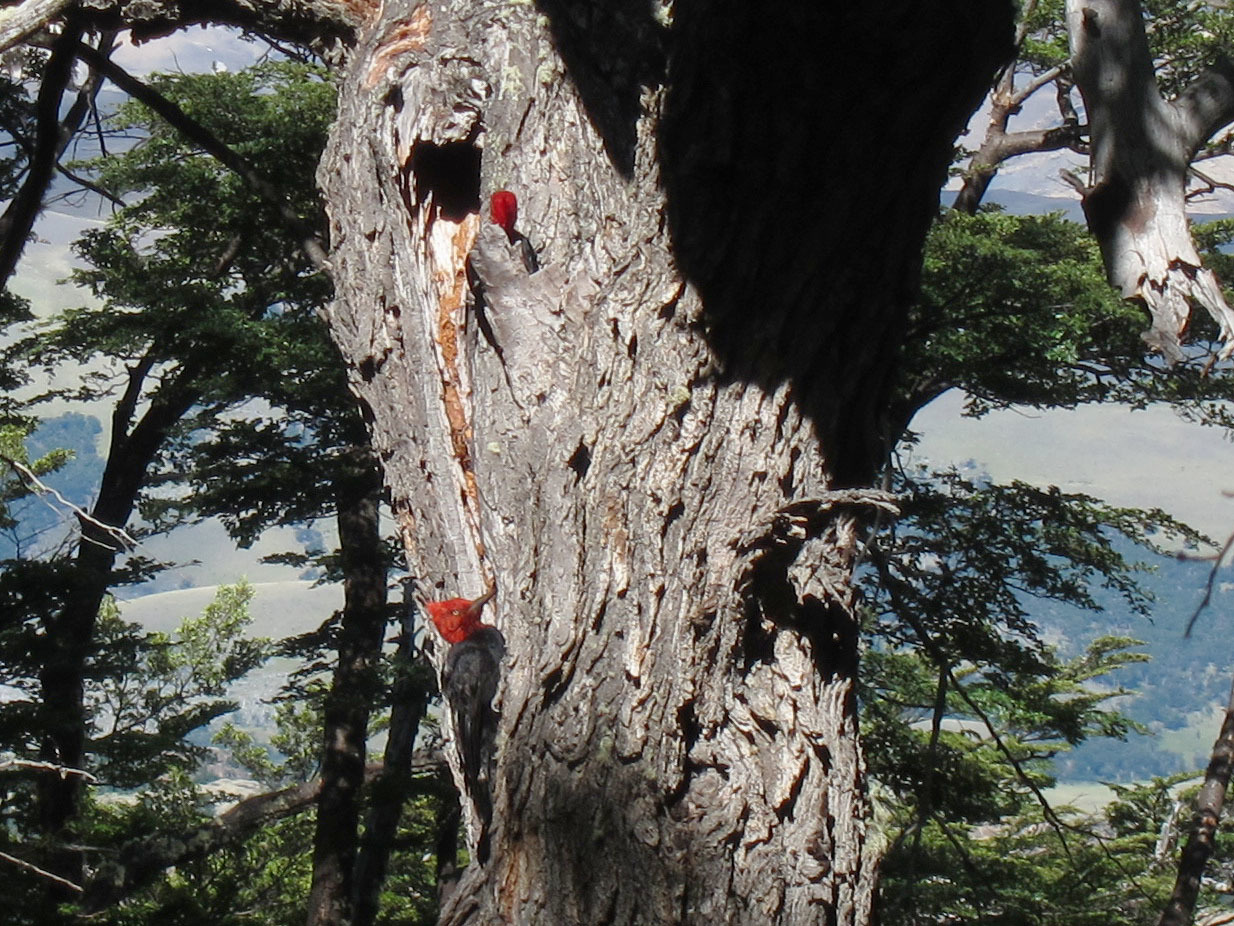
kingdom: Animalia
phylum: Chordata
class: Aves
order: Piciformes
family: Picidae
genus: Campephilus
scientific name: Campephilus magellanicus
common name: Magellanic woodpecker
